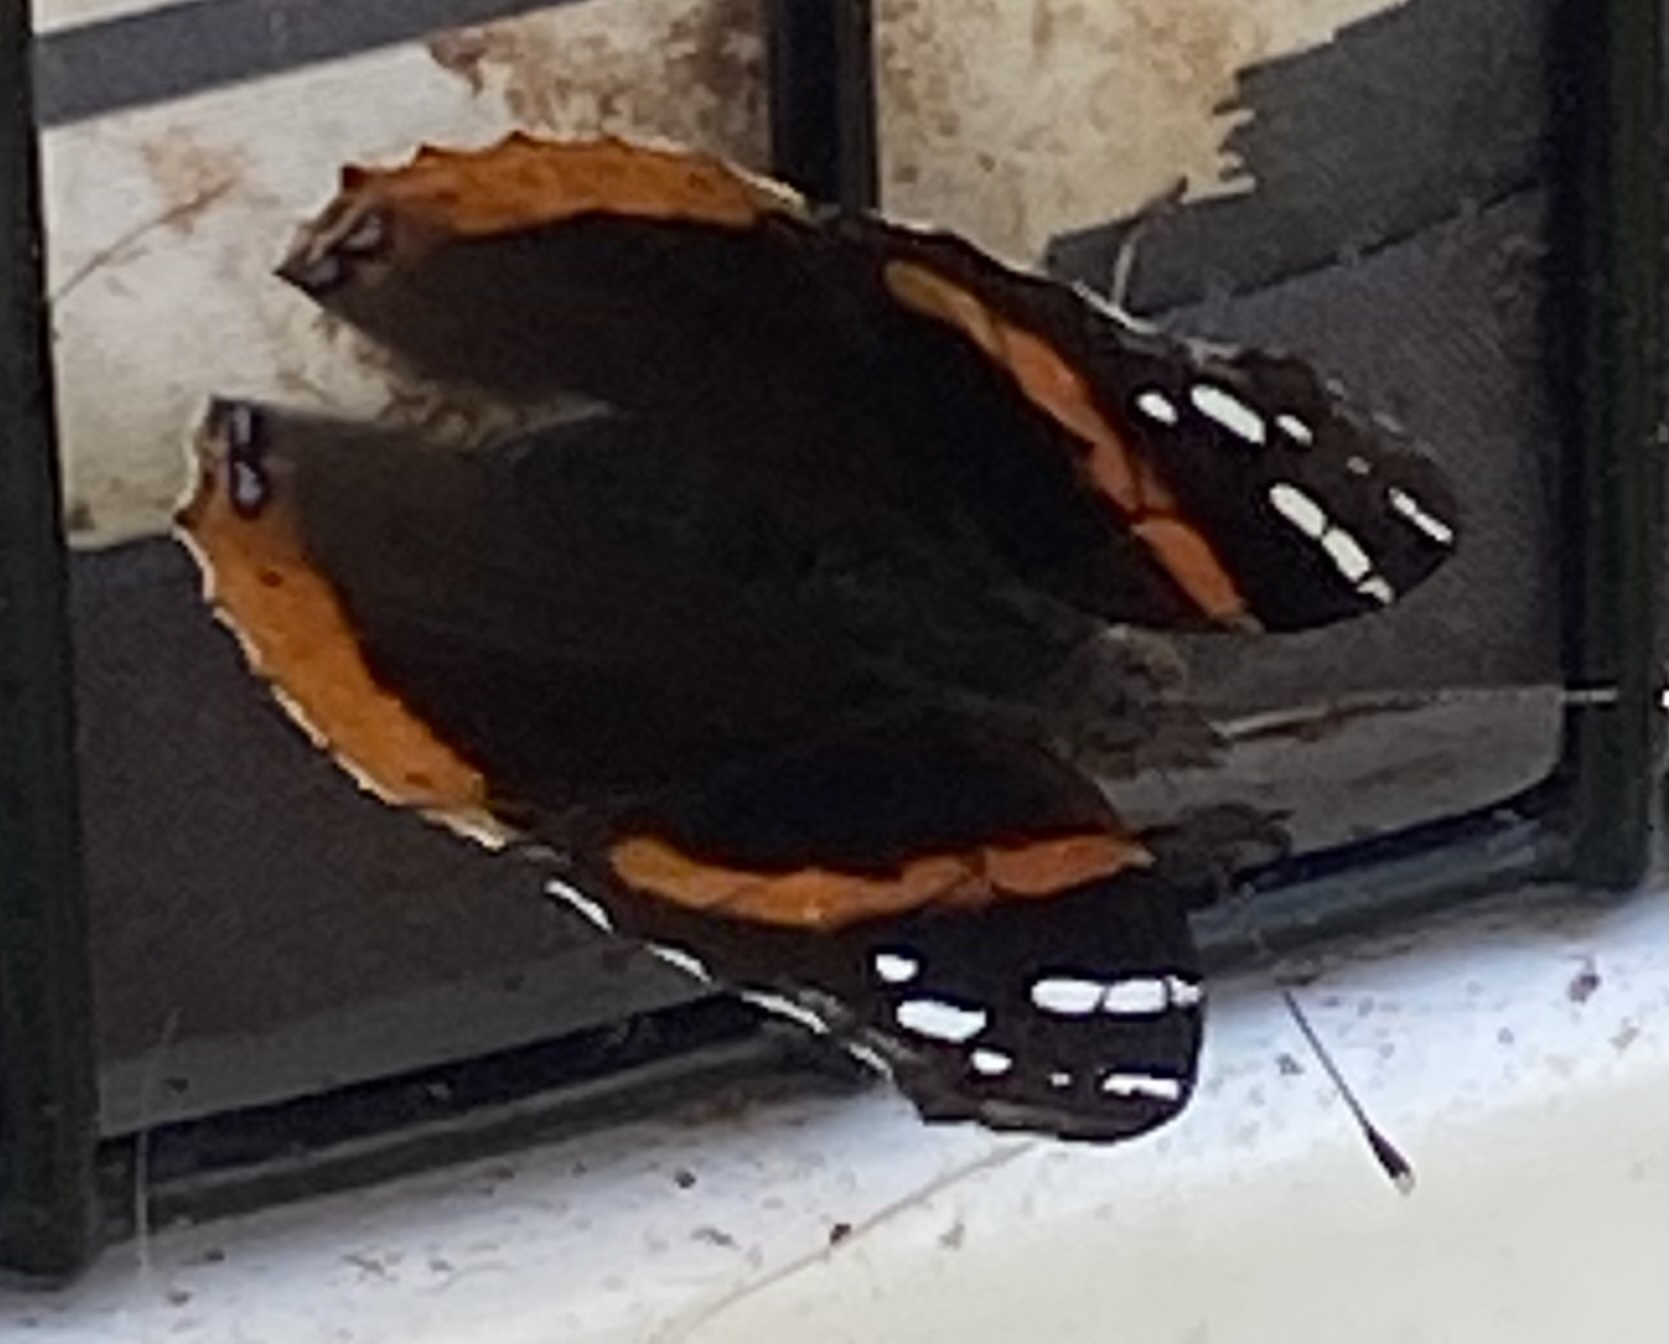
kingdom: Animalia
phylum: Arthropoda
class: Insecta
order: Lepidoptera
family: Nymphalidae
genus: Vanessa
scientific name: Vanessa atalanta
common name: Red admiral
